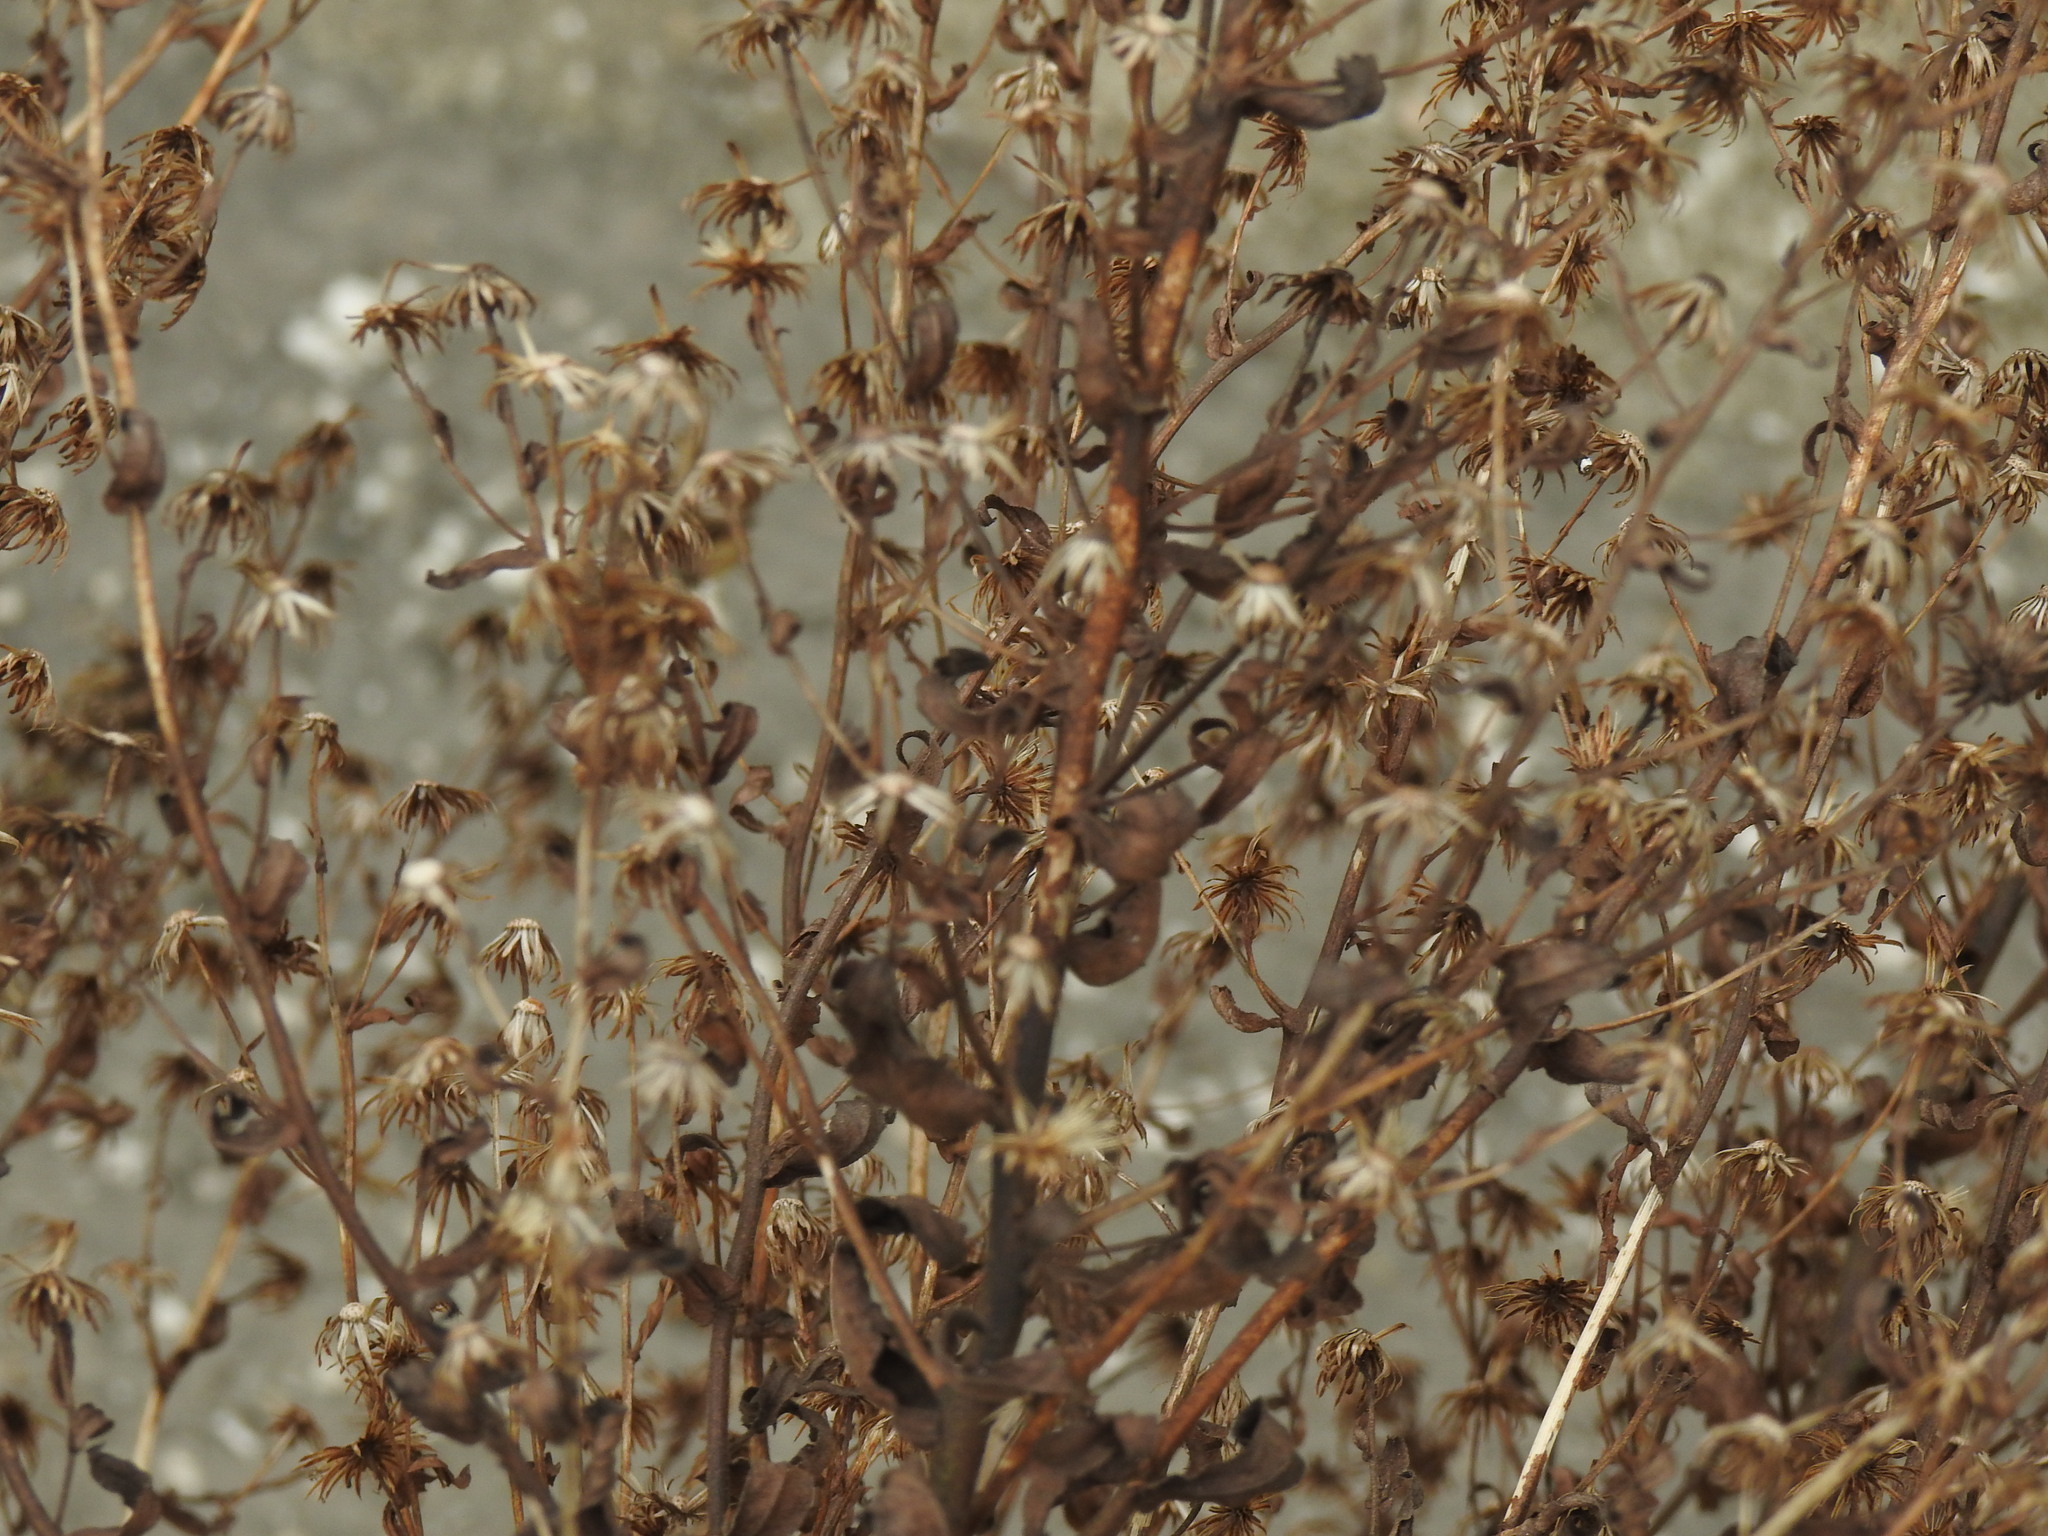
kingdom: Plantae
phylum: Tracheophyta
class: Magnoliopsida
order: Asterales
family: Asteraceae
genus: Dittrichia
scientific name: Dittrichia viscosa
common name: Woody fleabane
